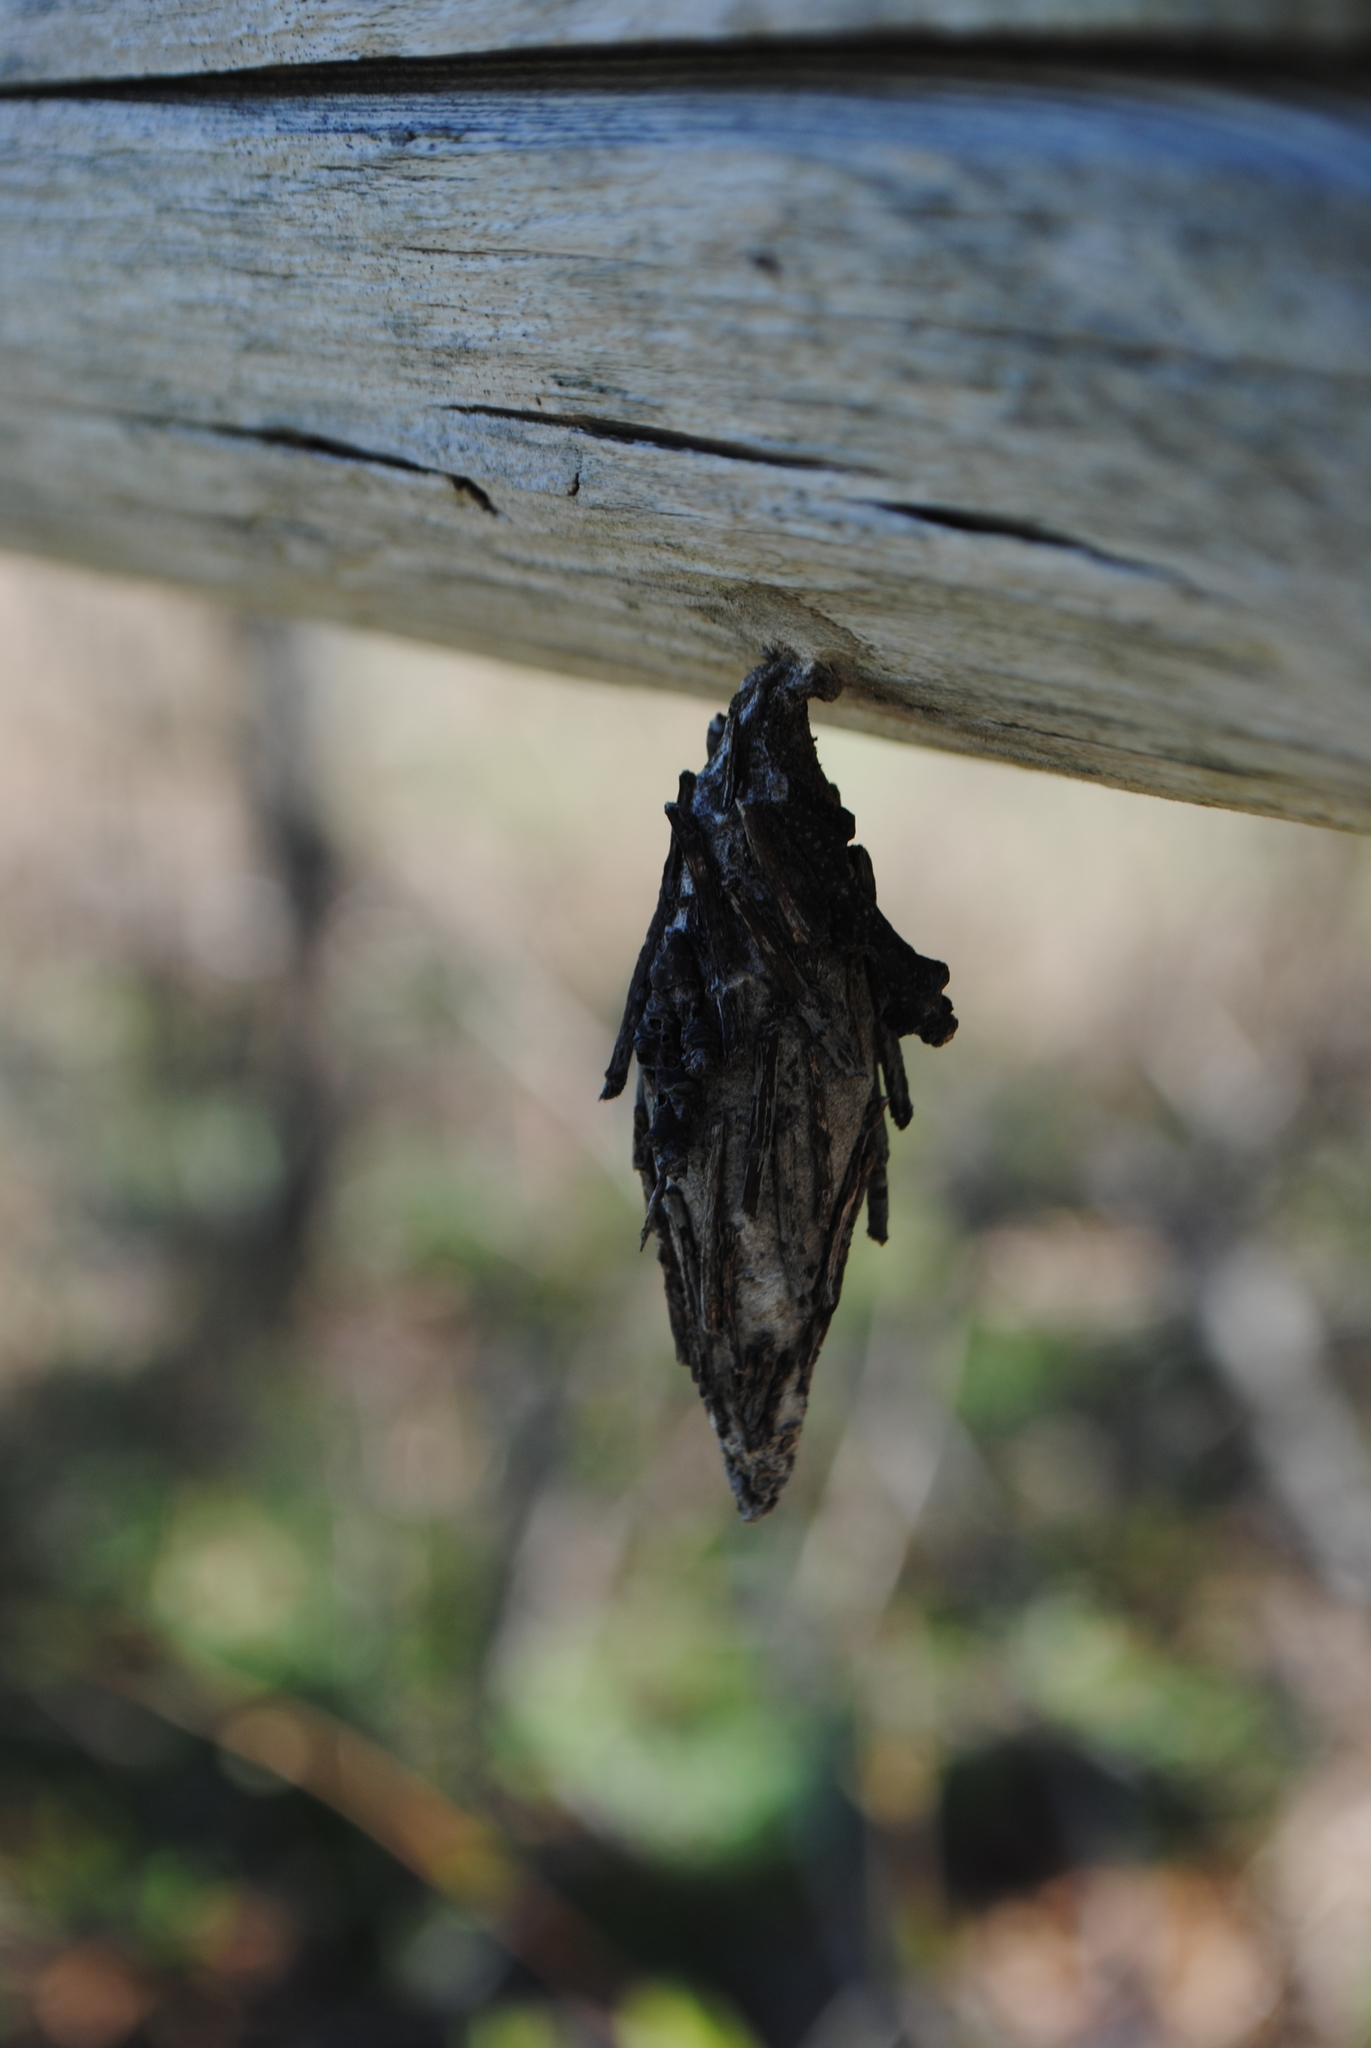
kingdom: Animalia
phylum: Arthropoda
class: Insecta
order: Lepidoptera
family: Psychidae
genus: Thyridopteryx
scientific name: Thyridopteryx ephemeraeformis
